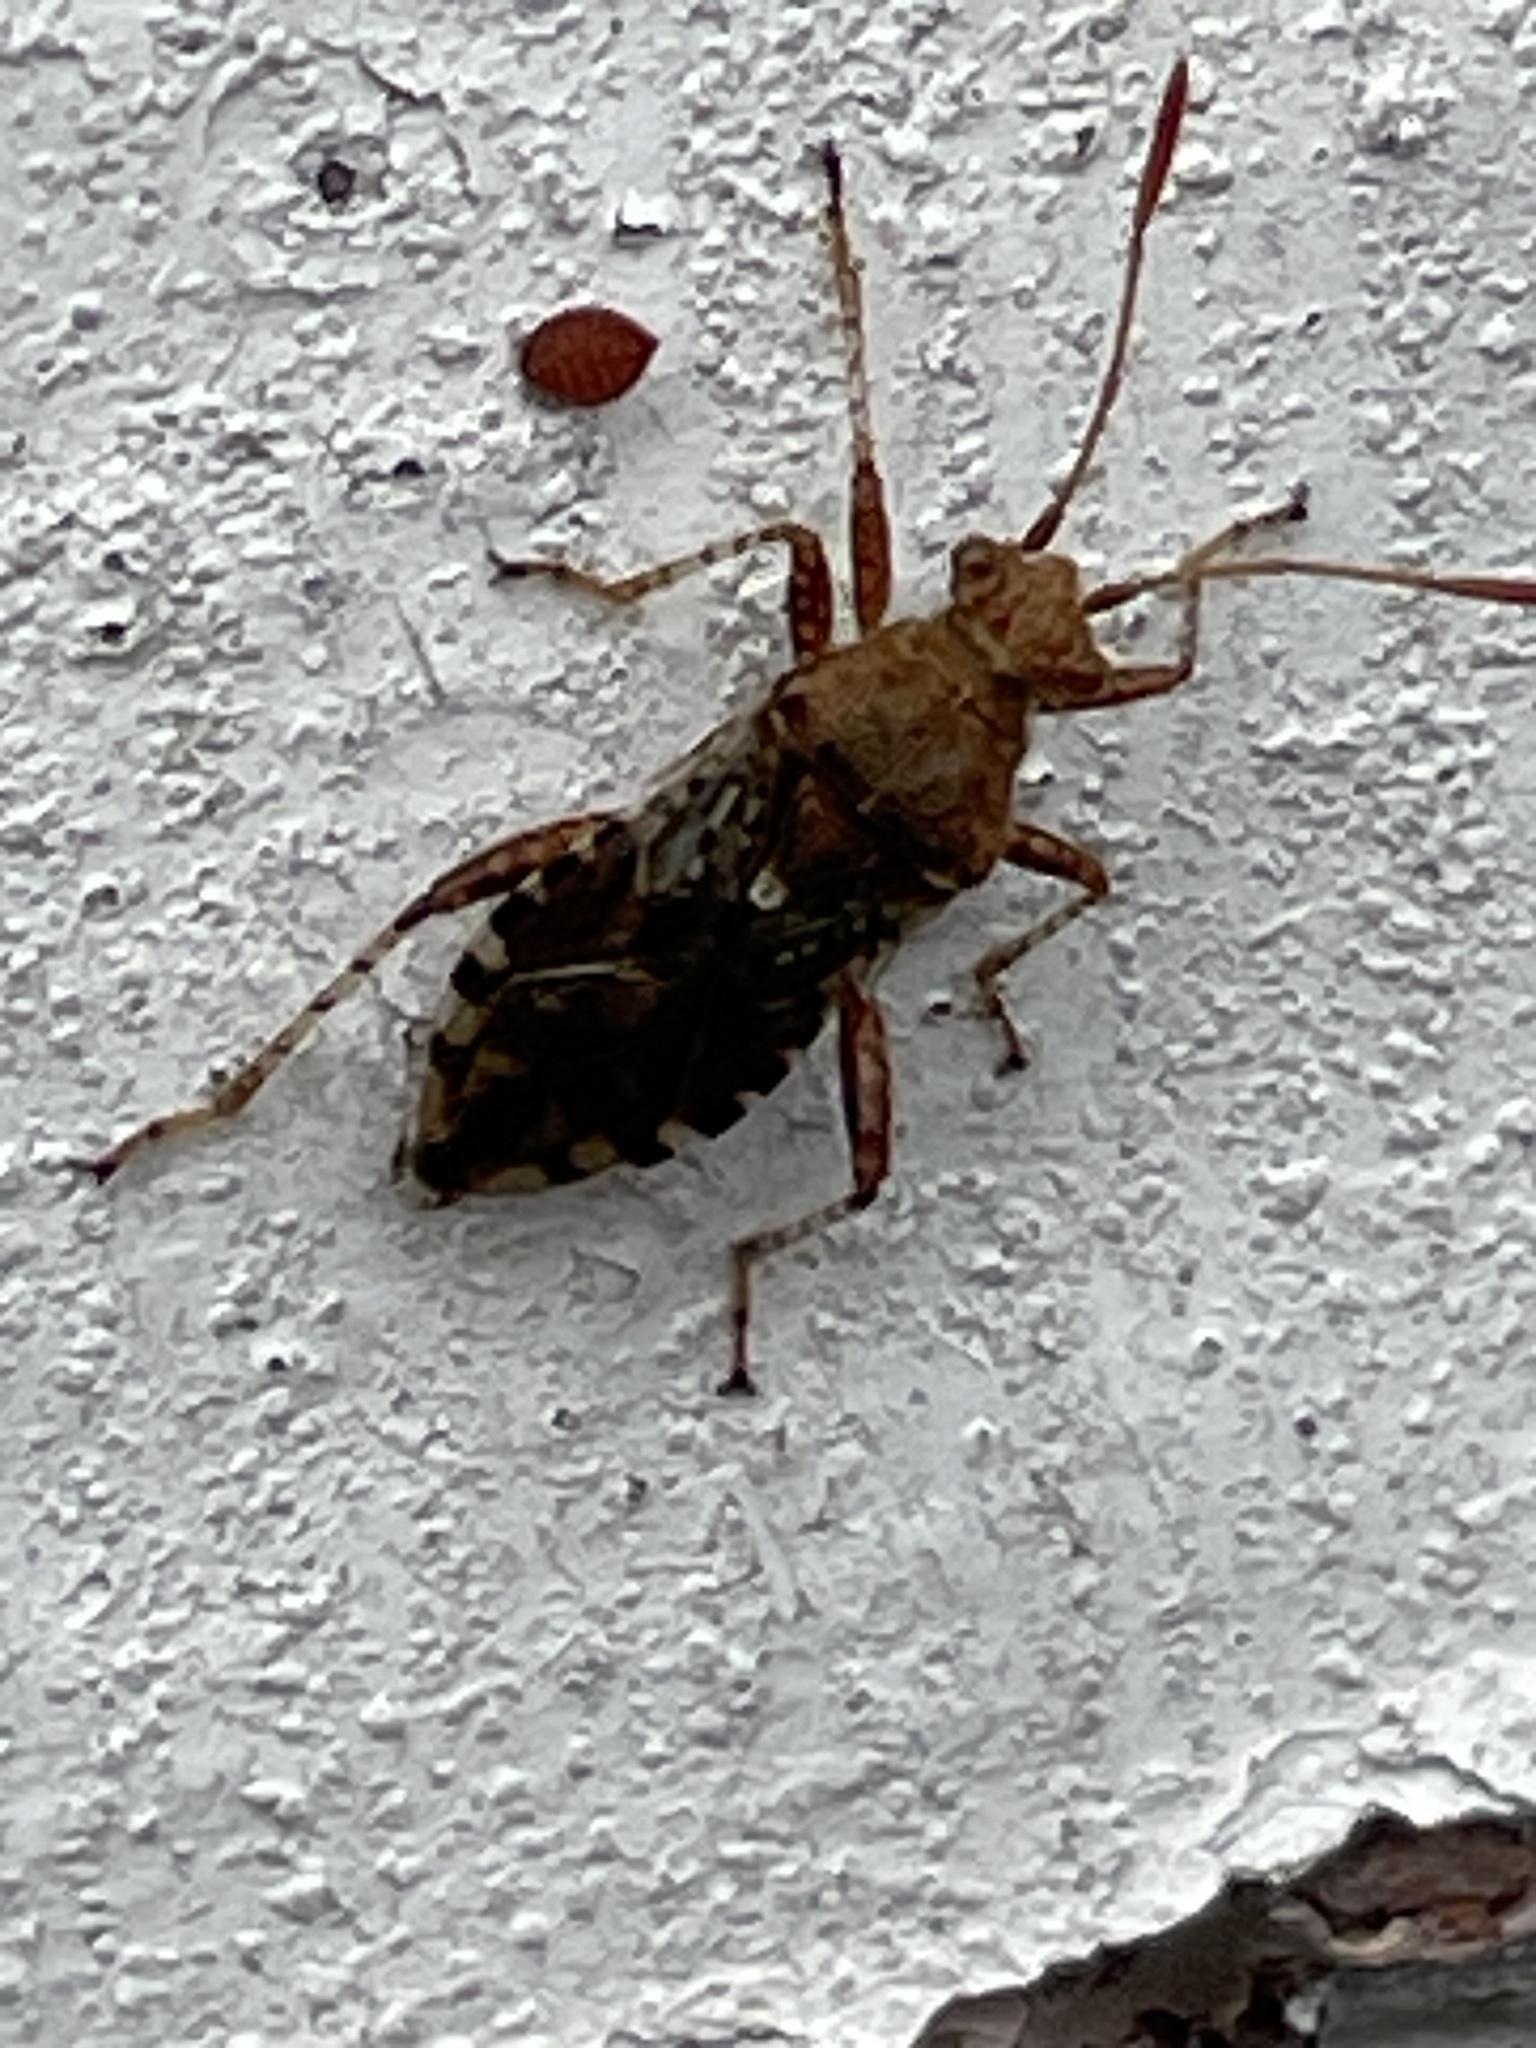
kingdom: Animalia
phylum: Arthropoda
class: Insecta
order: Hemiptera
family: Rhopalidae
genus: Rhopalus
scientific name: Rhopalus subrufus
